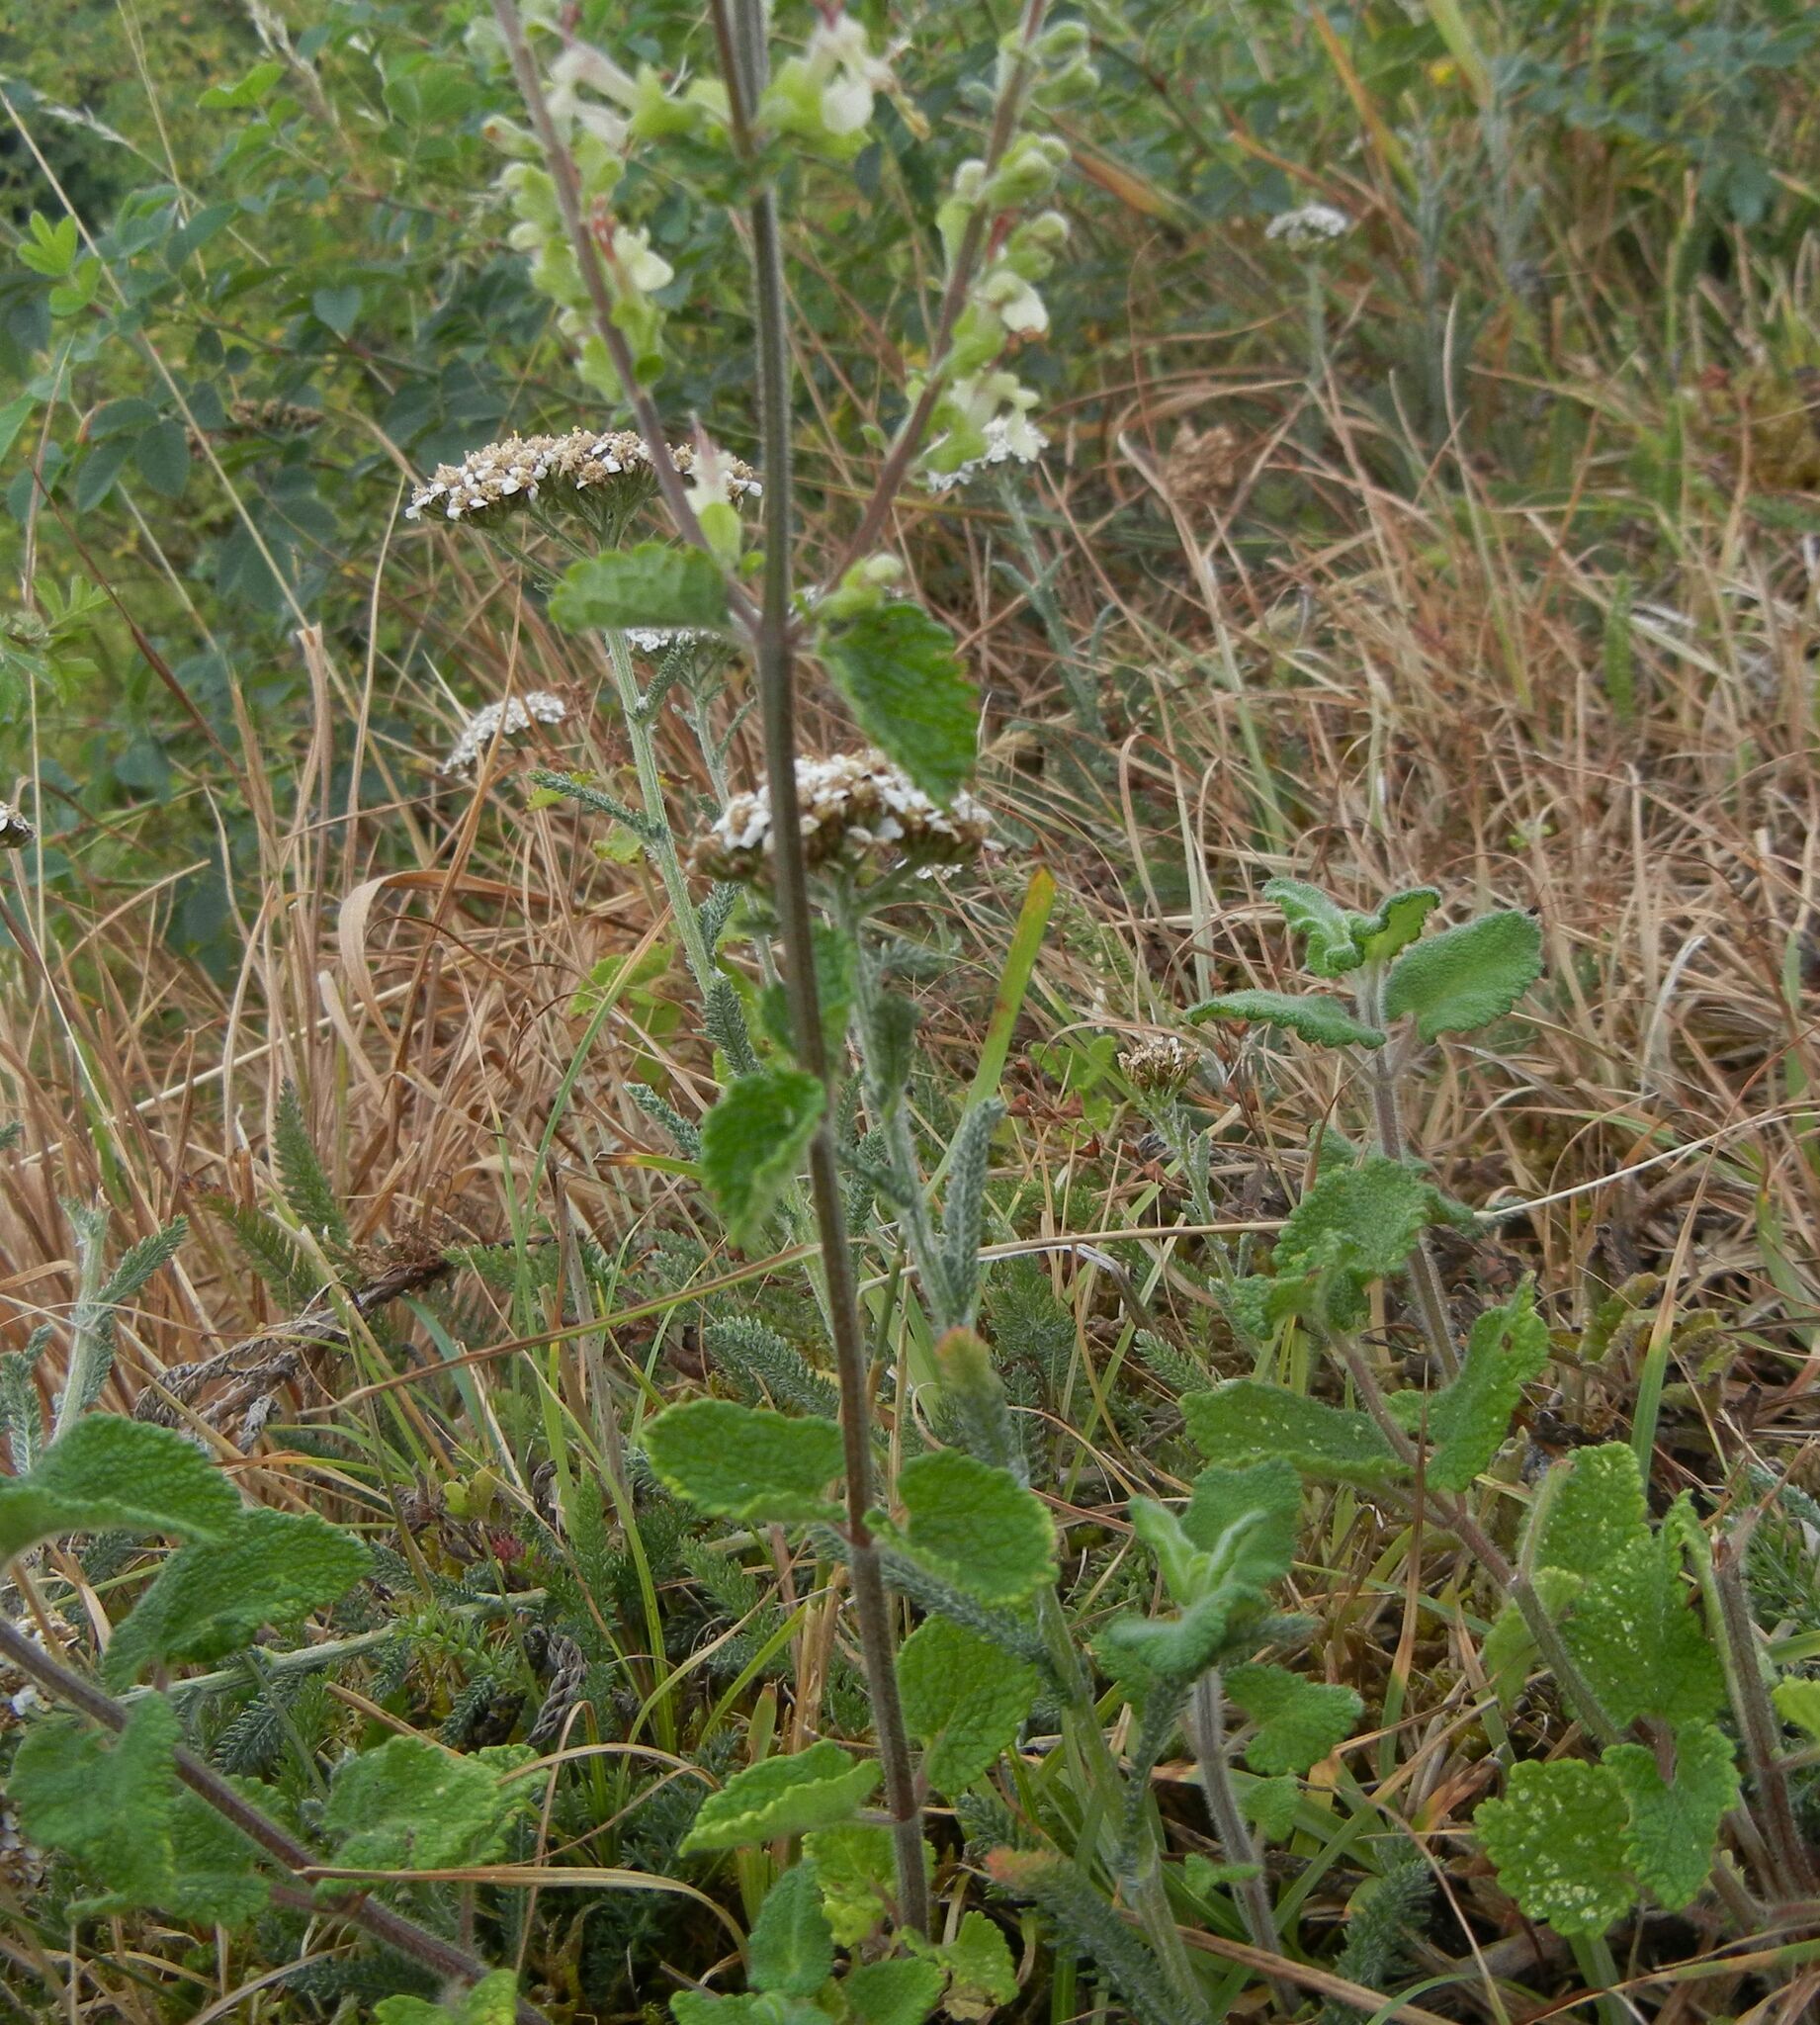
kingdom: Plantae
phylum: Tracheophyta
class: Magnoliopsida
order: Lamiales
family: Lamiaceae
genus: Teucrium
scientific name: Teucrium scorodonia
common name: Woodland germander
